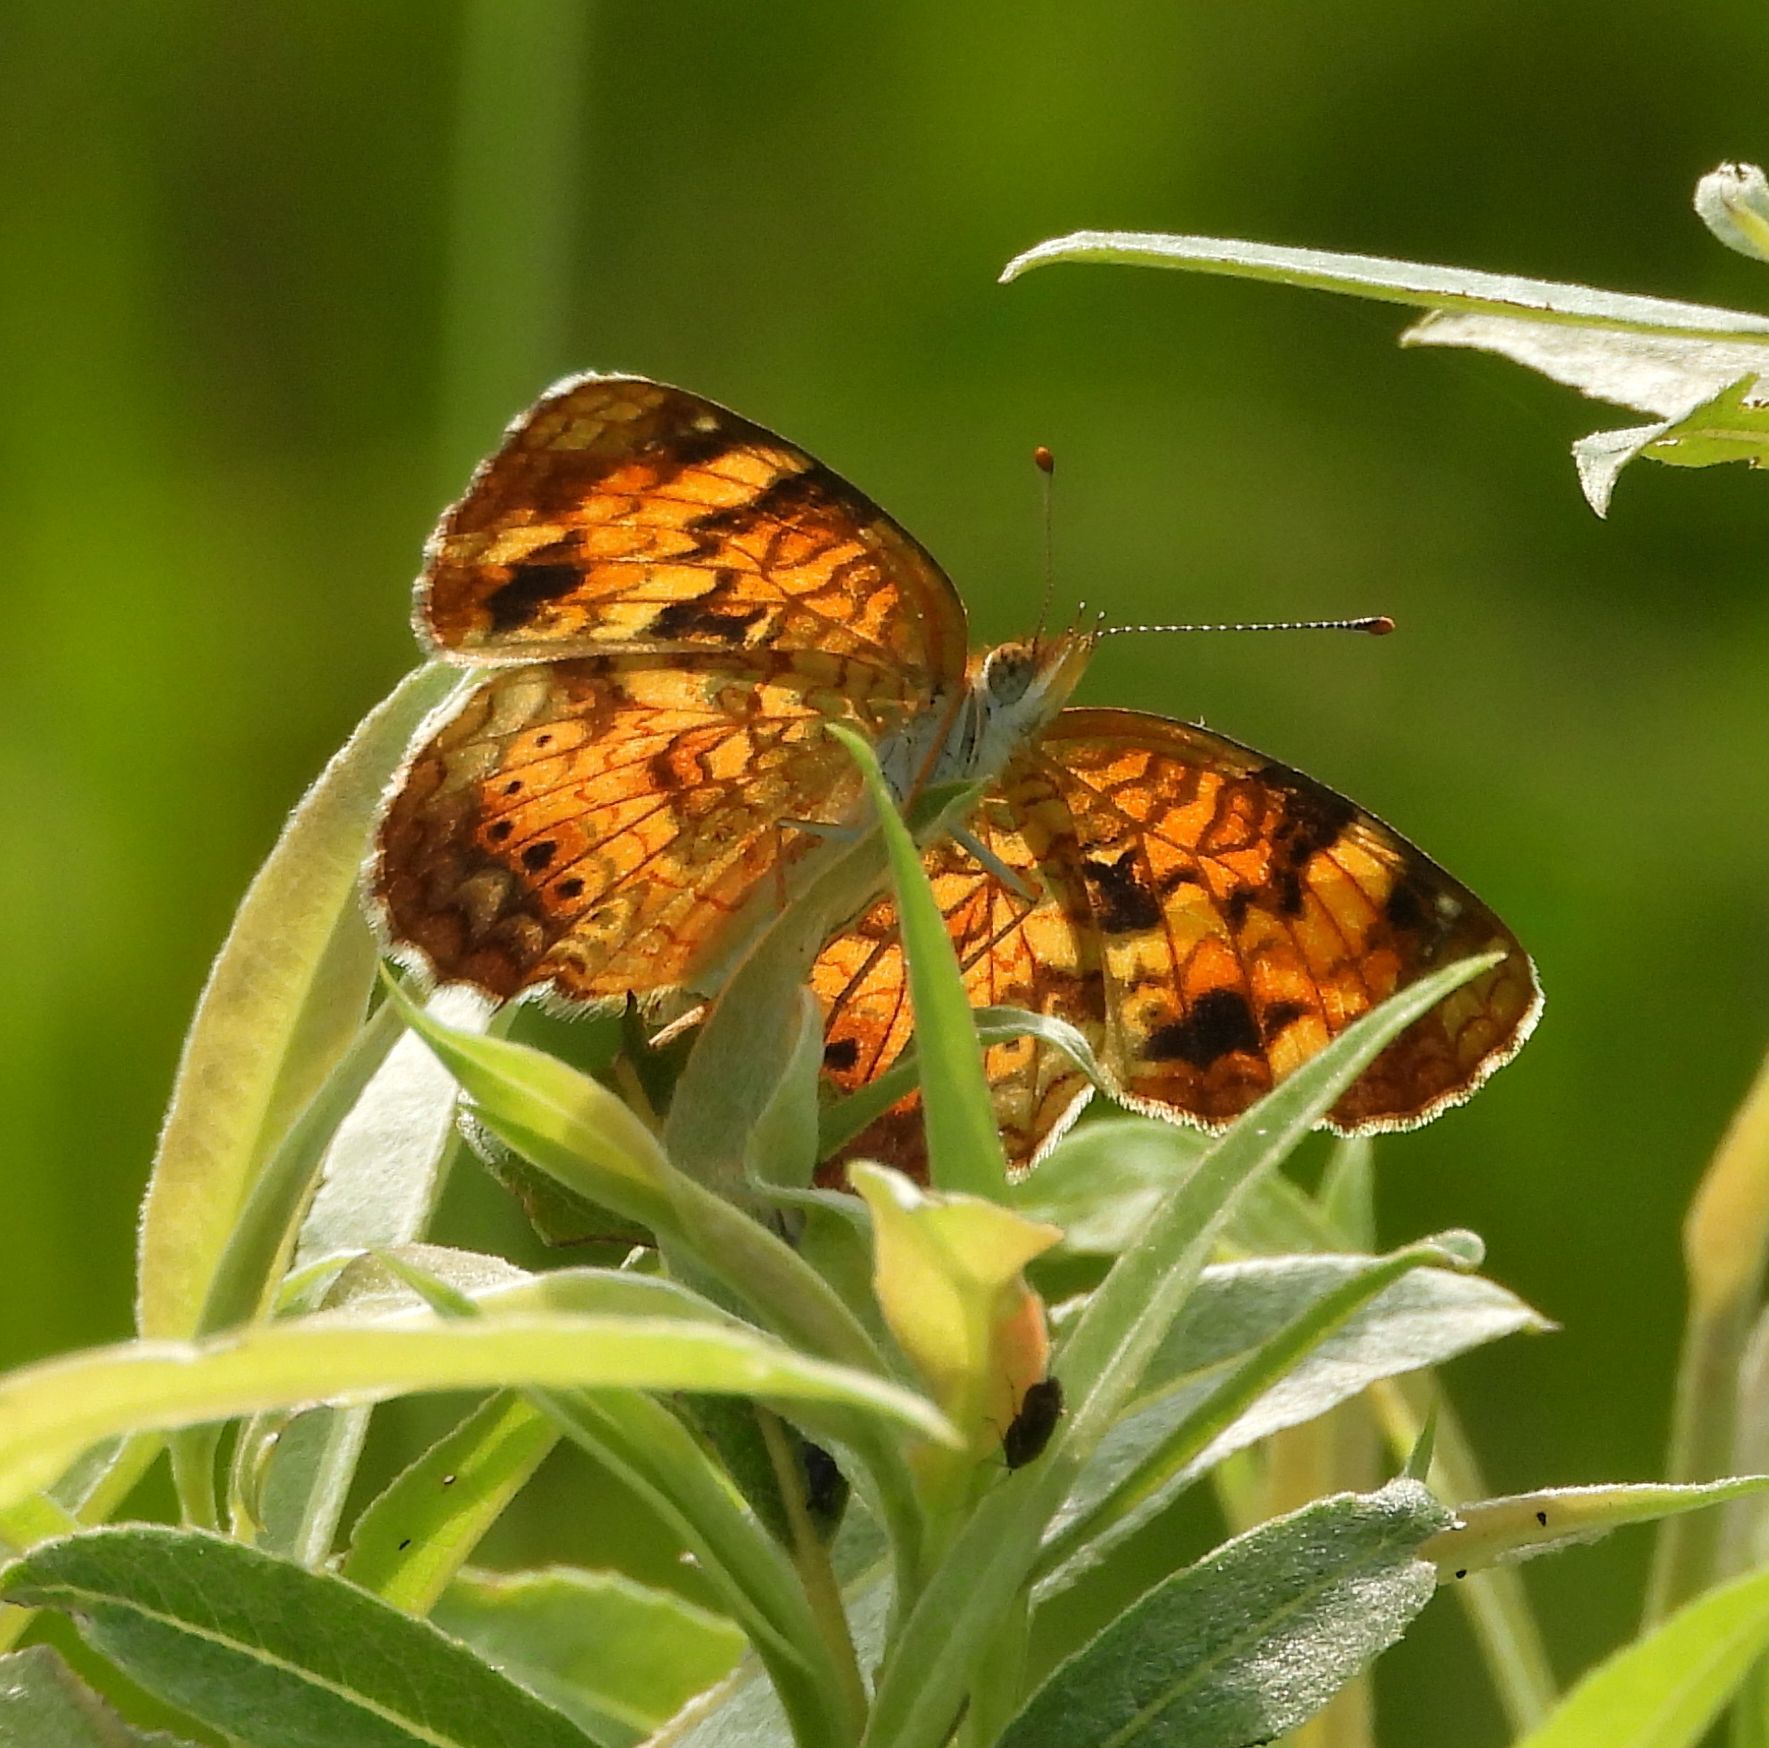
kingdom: Animalia
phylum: Arthropoda
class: Insecta
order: Lepidoptera
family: Nymphalidae
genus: Phyciodes
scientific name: Phyciodes tharos
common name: Pearl crescent
